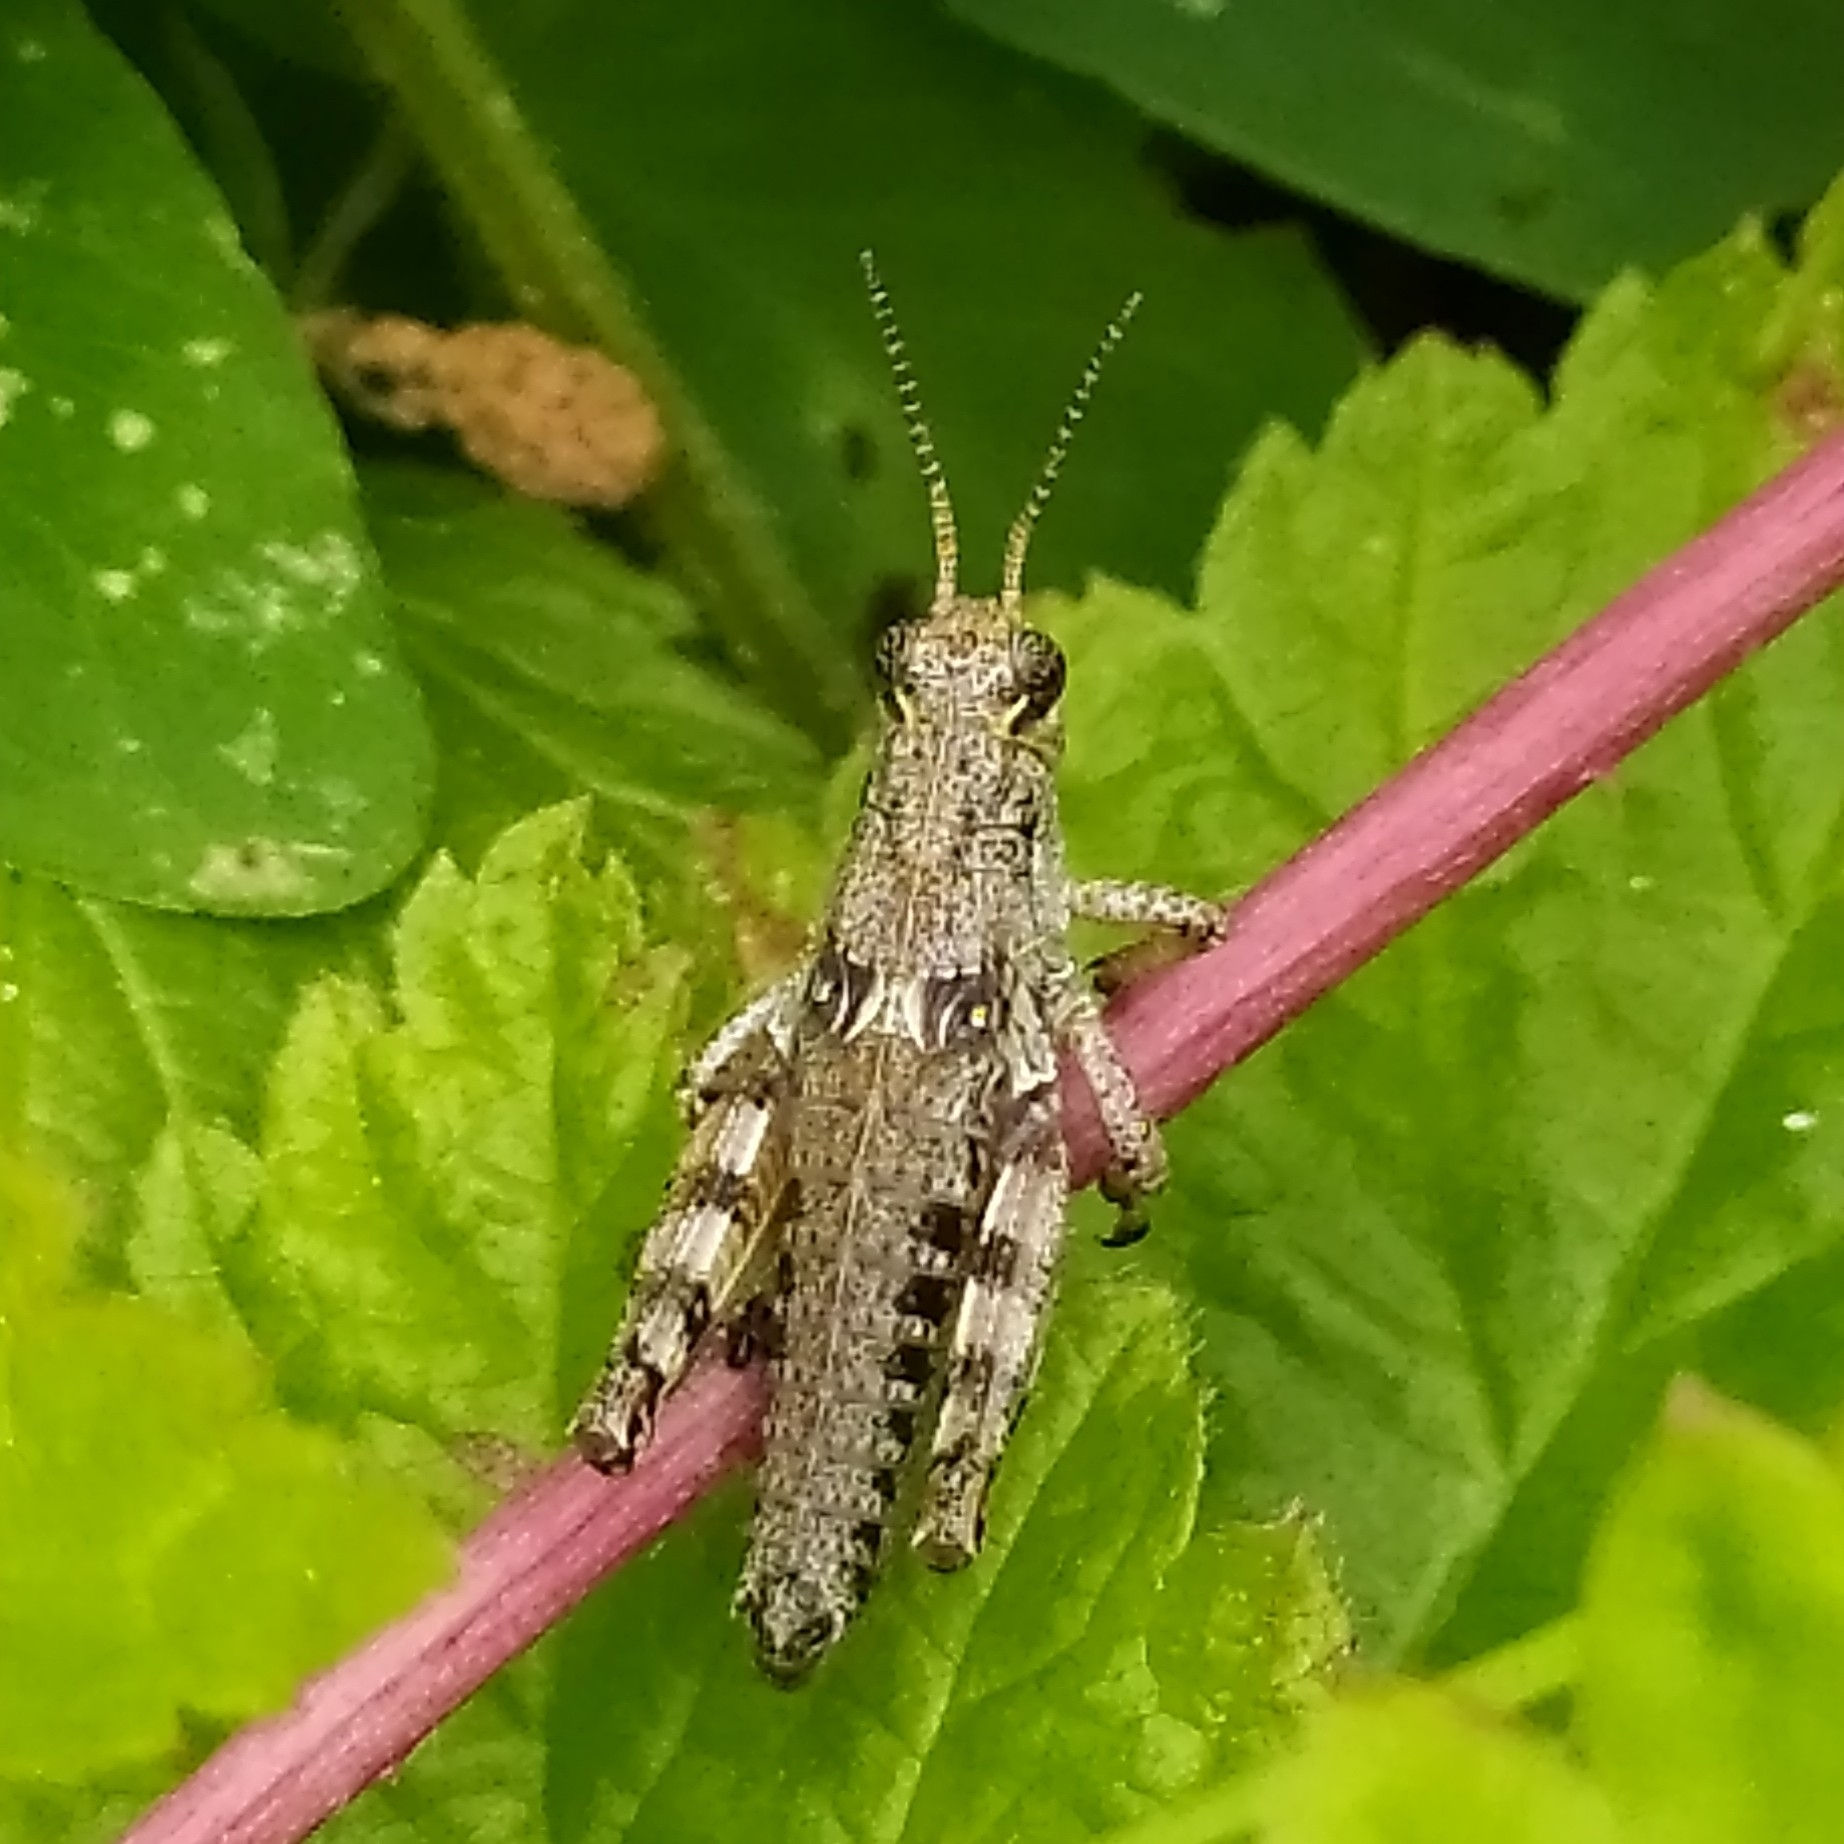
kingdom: Animalia
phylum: Arthropoda
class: Insecta
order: Orthoptera
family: Acrididae
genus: Podisma
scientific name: Podisma pedestris
